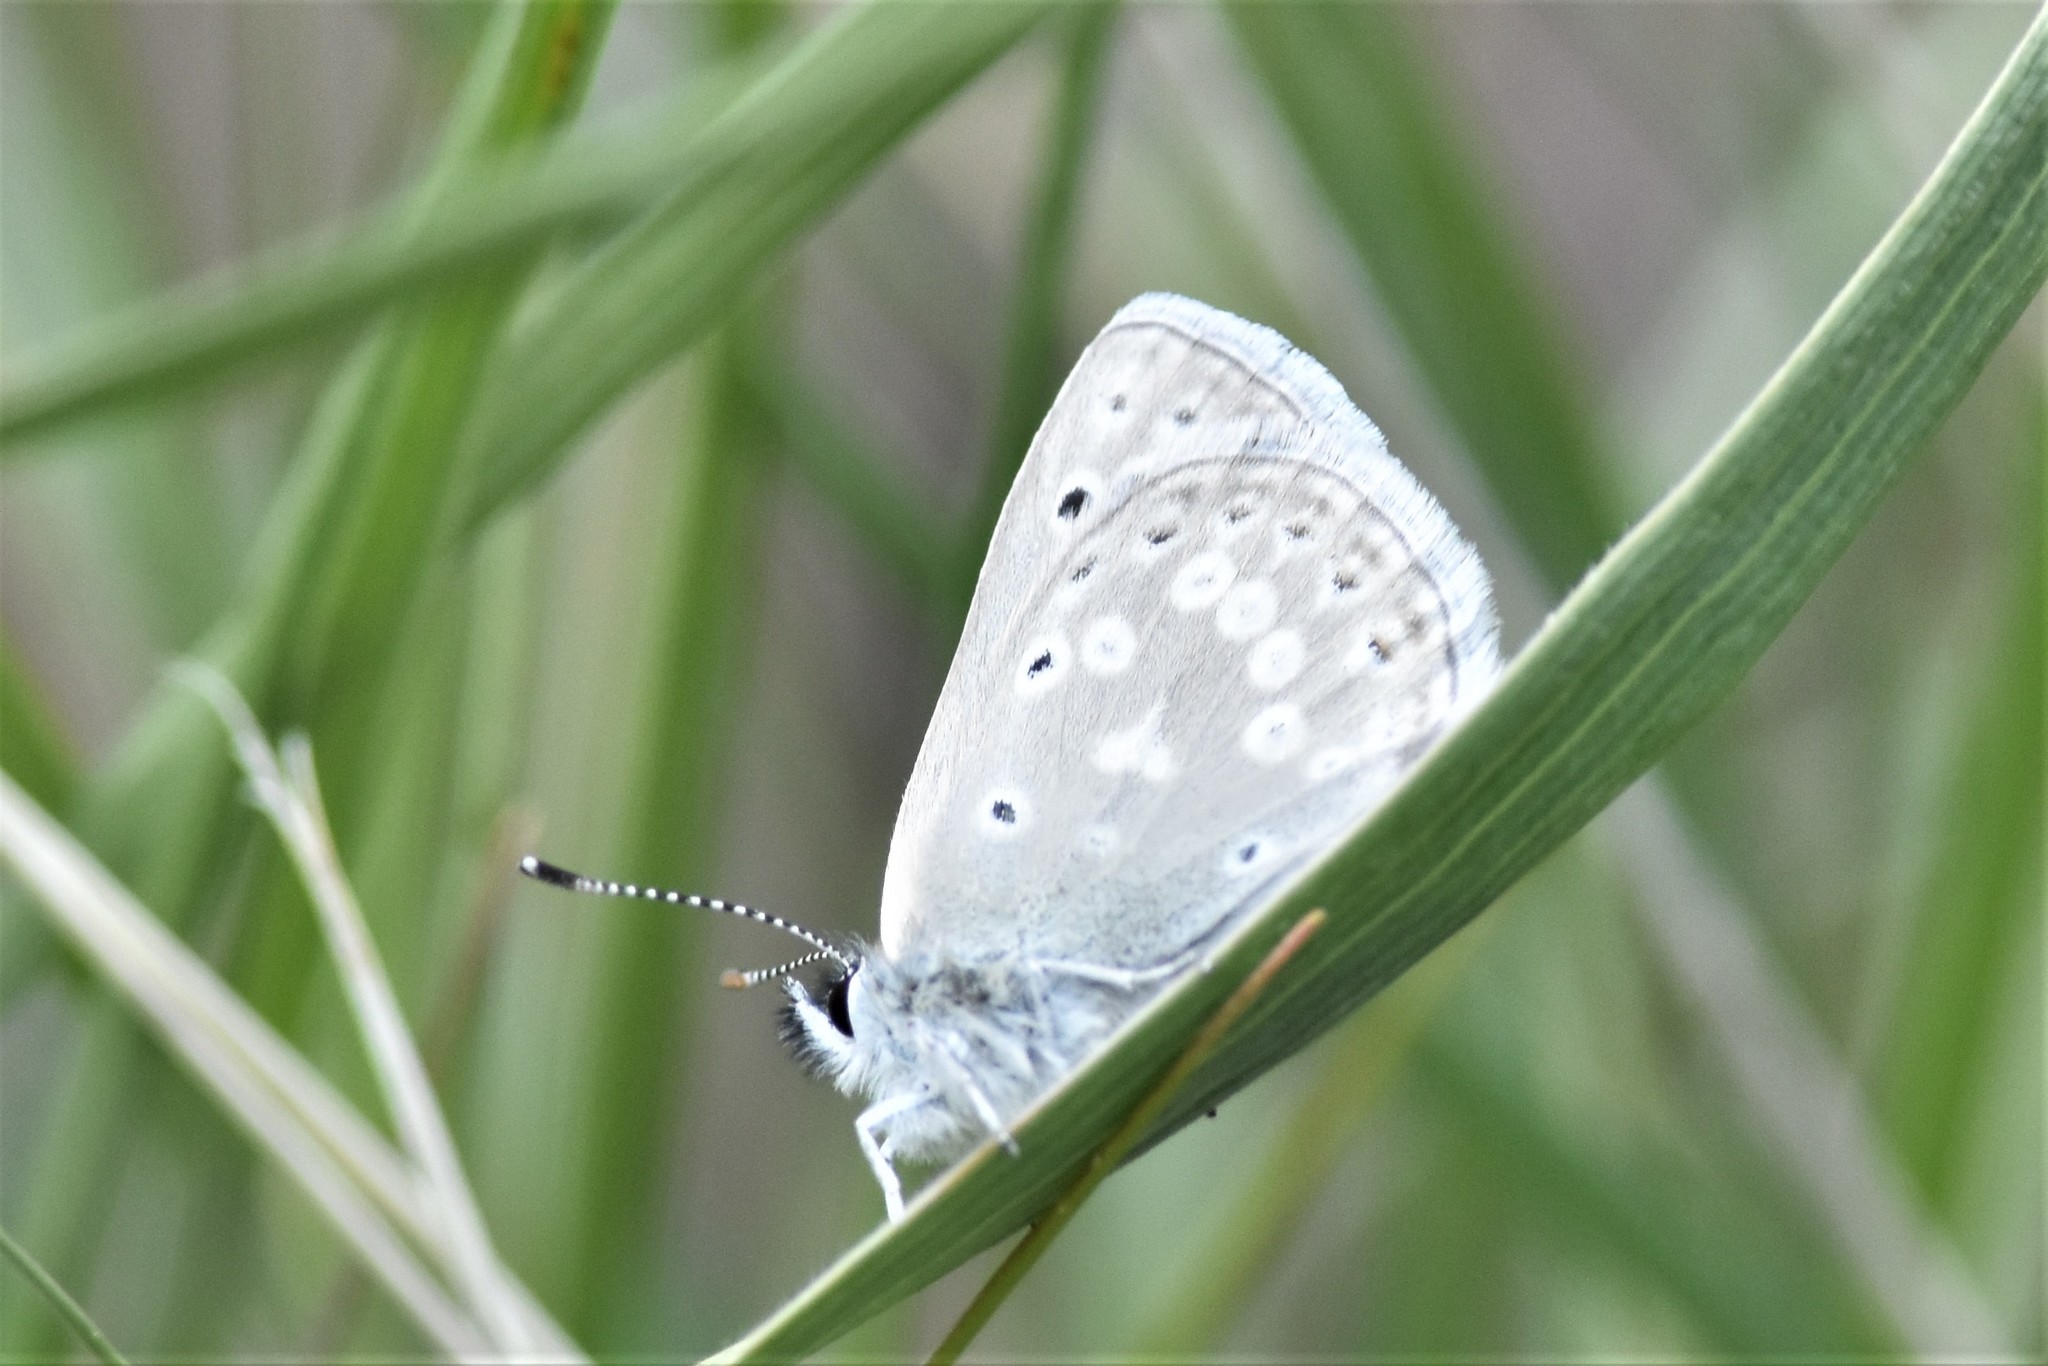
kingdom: Animalia
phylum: Arthropoda
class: Insecta
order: Lepidoptera
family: Lycaenidae
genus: Icaricia
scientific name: Icaricia icarioides
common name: Boisduval's blue
